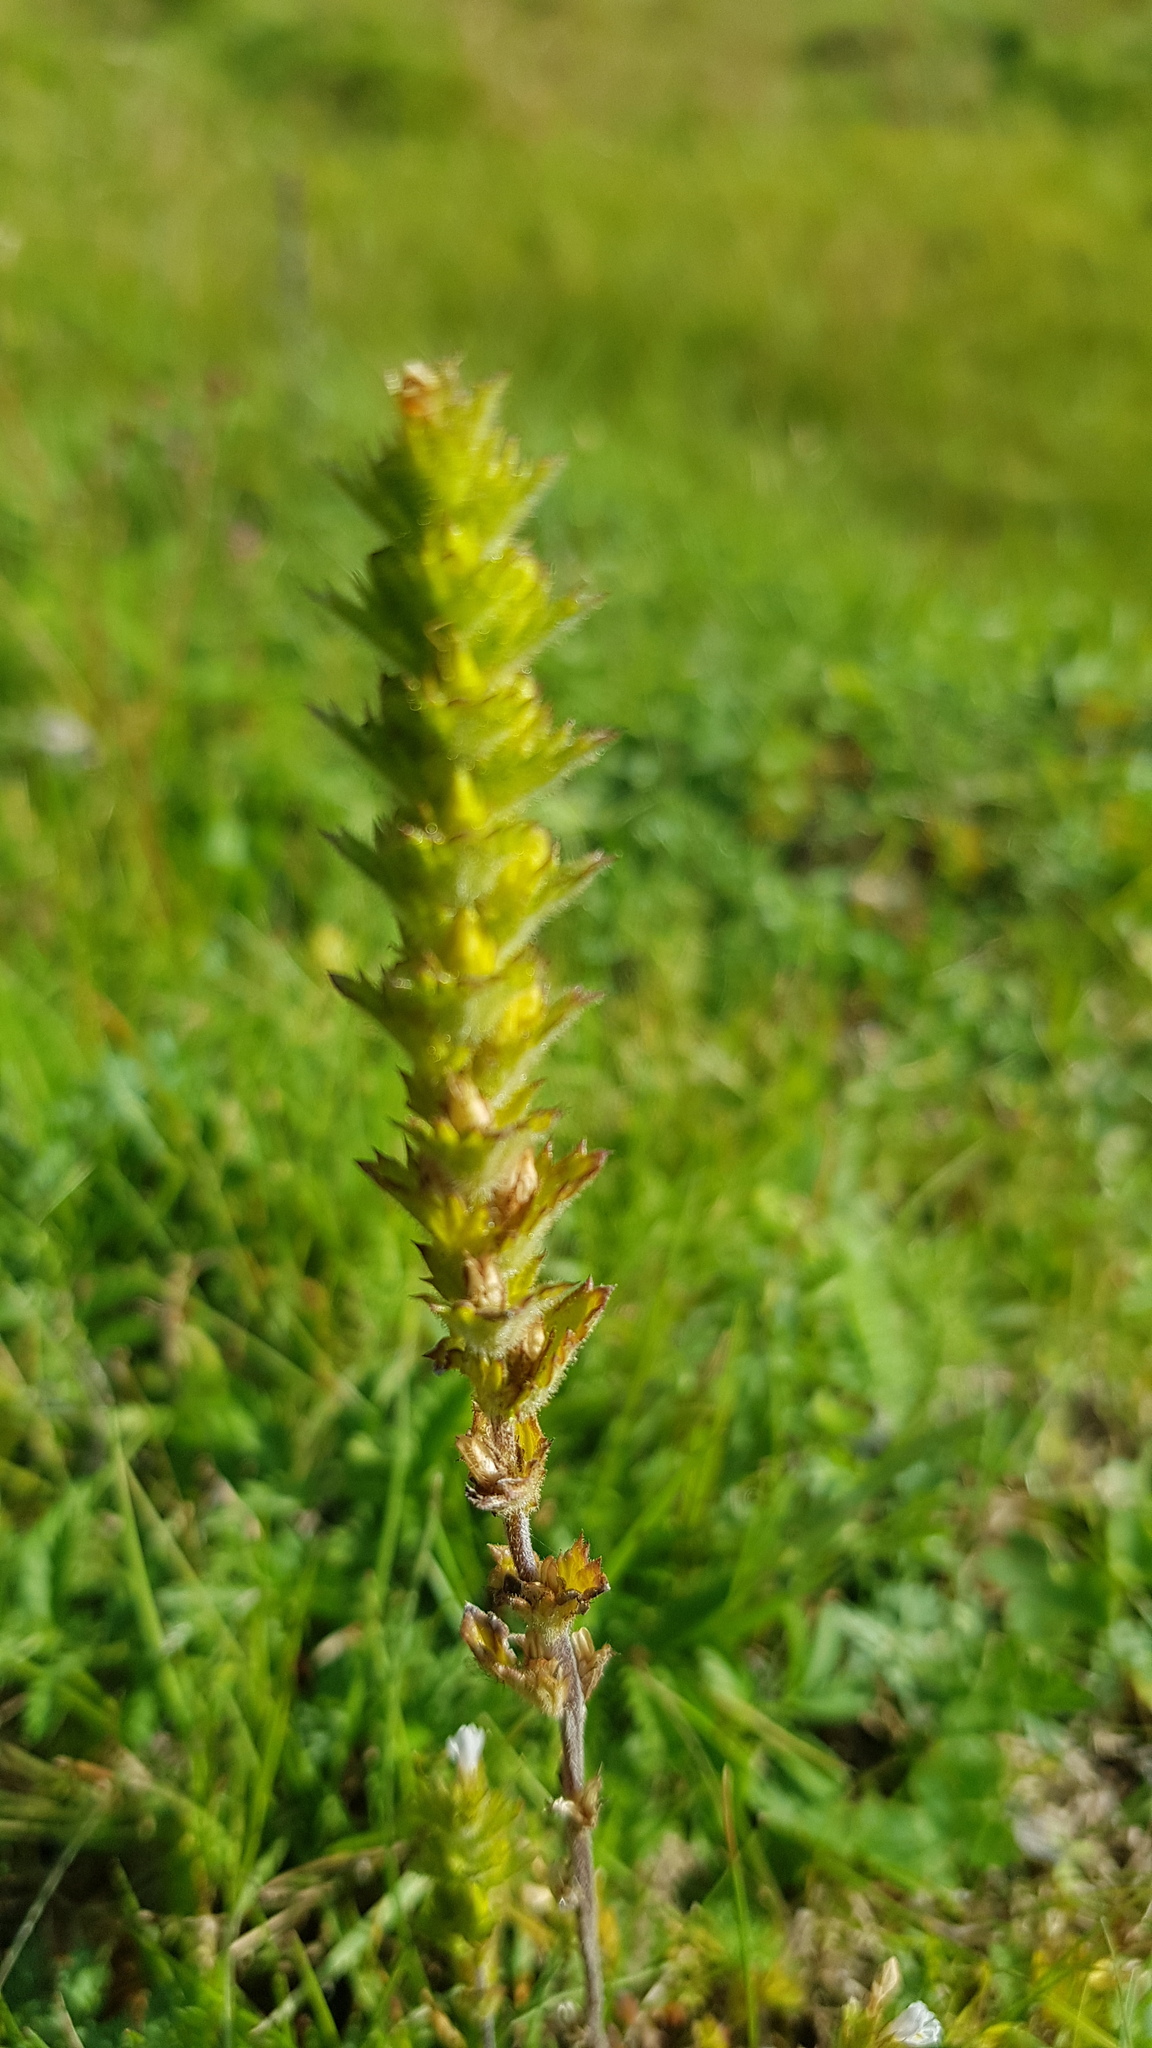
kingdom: Plantae
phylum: Tracheophyta
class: Magnoliopsida
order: Lamiales
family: Orobanchaceae
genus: Euphrasia
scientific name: Euphrasia pectinata
